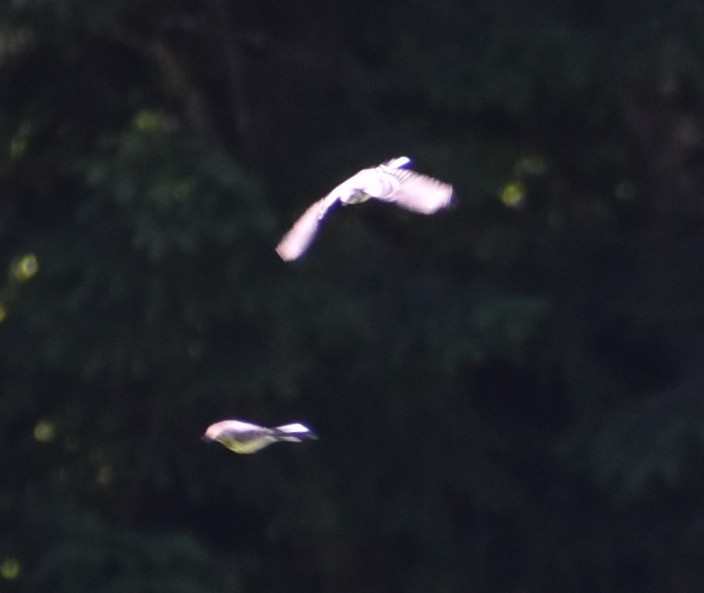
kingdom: Animalia
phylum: Chordata
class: Aves
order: Passeriformes
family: Motacillidae
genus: Motacilla
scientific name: Motacilla alba
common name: White wagtail
